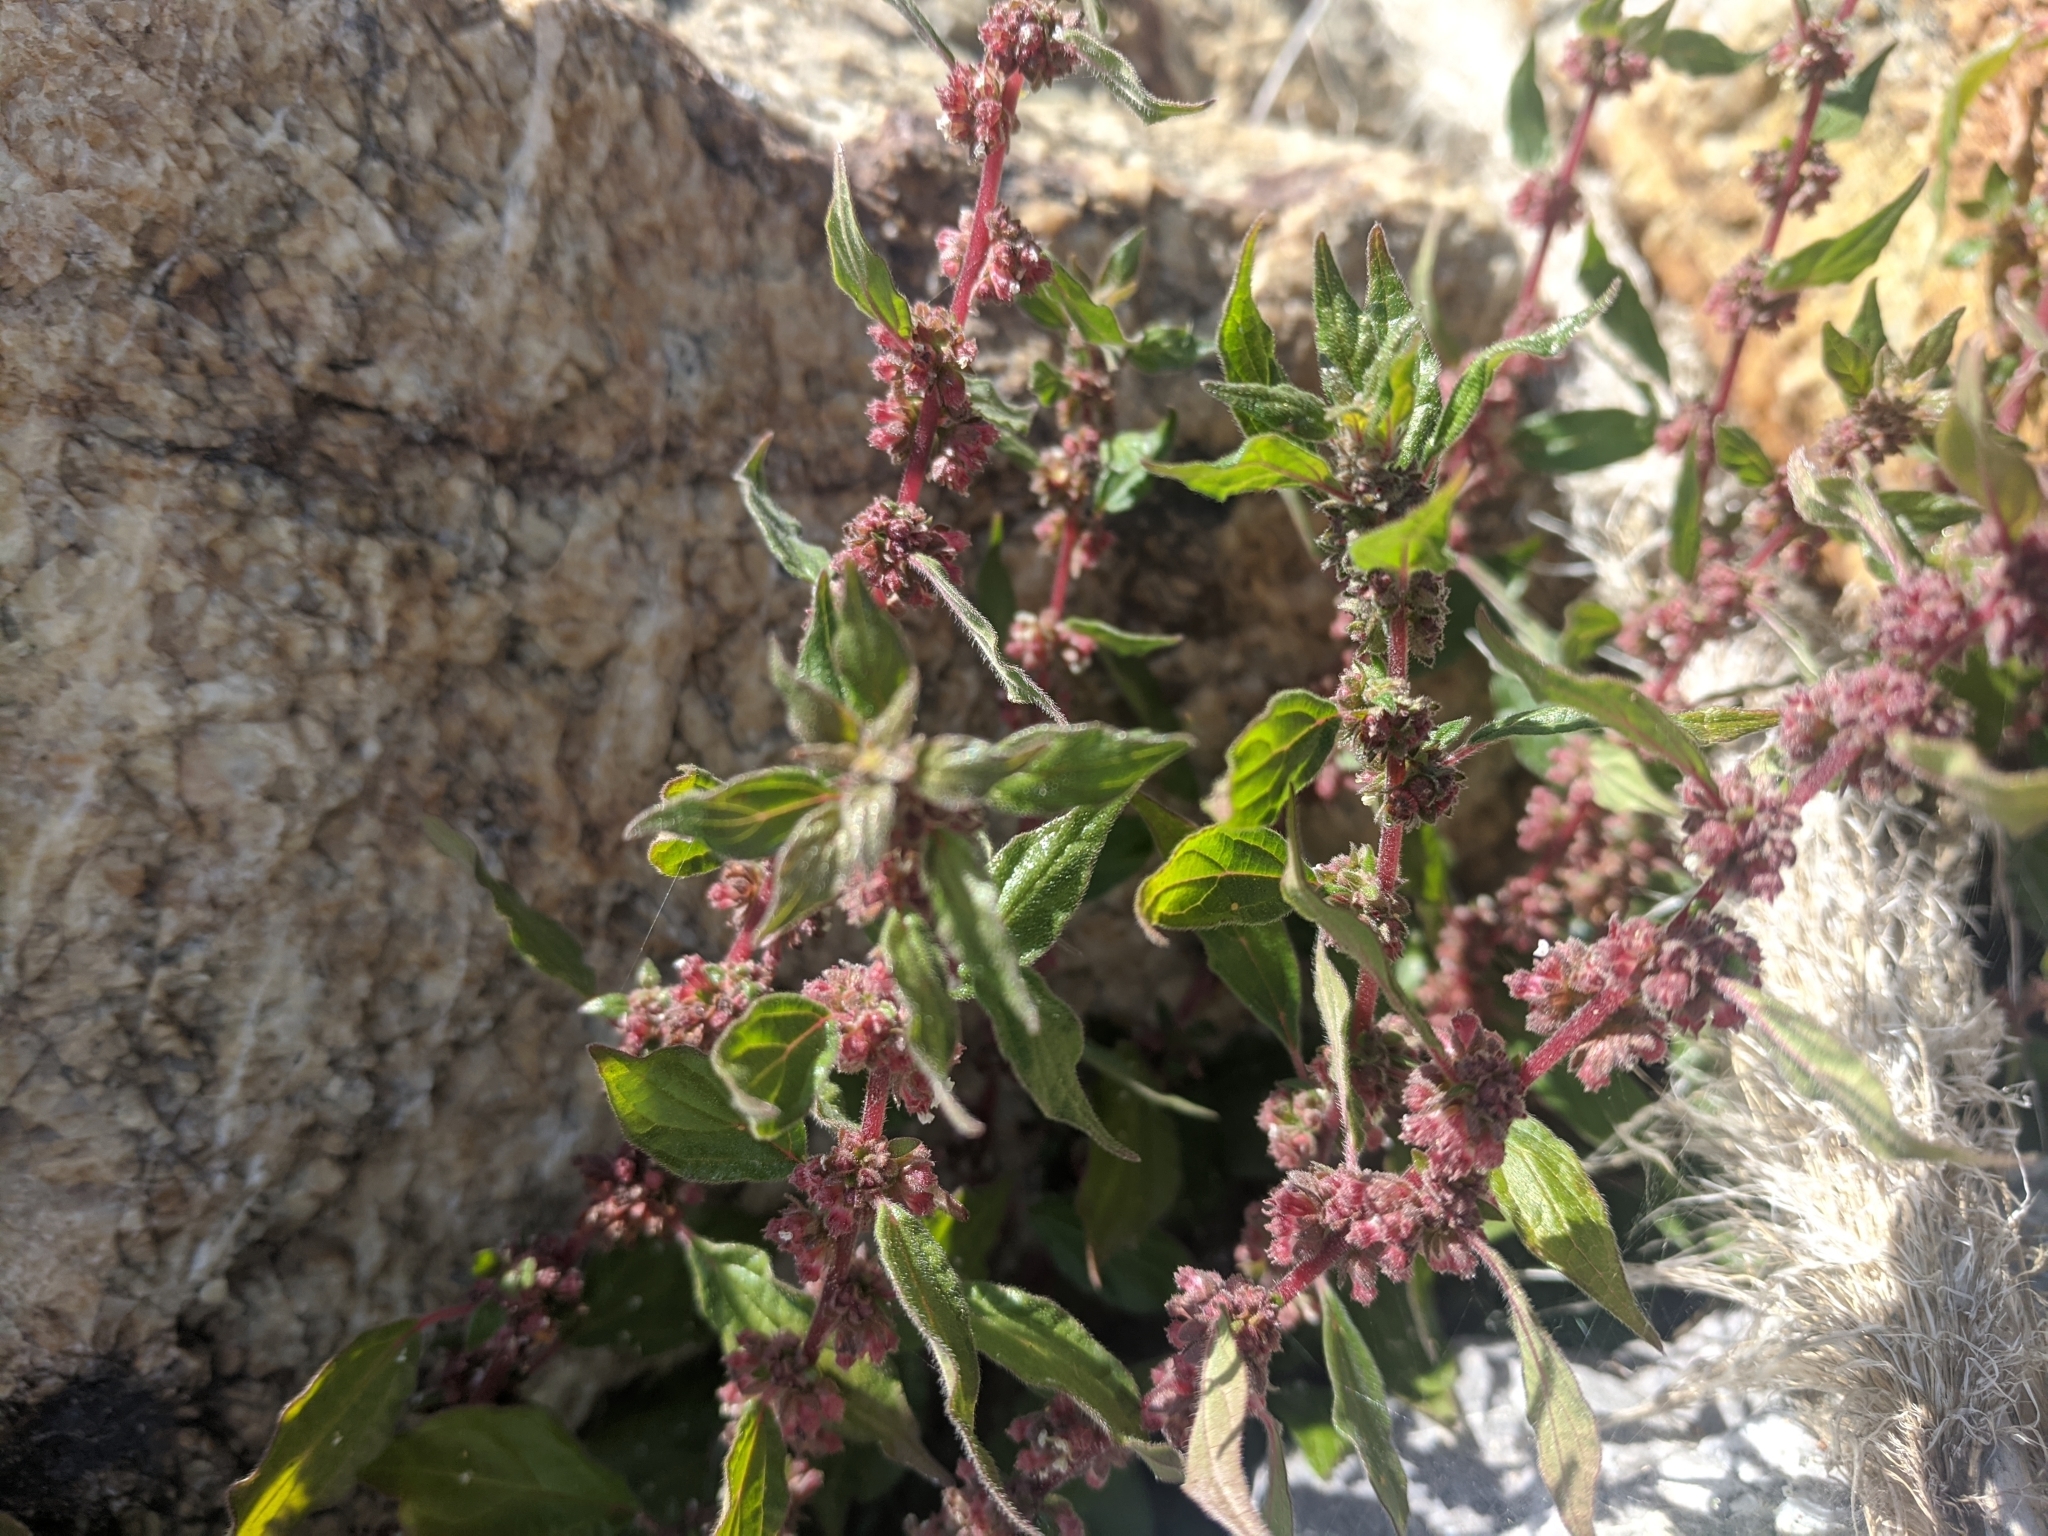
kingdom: Plantae
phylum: Tracheophyta
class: Magnoliopsida
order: Rosales
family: Urticaceae
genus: Parietaria
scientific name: Parietaria judaica
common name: Pellitory-of-the-wall
